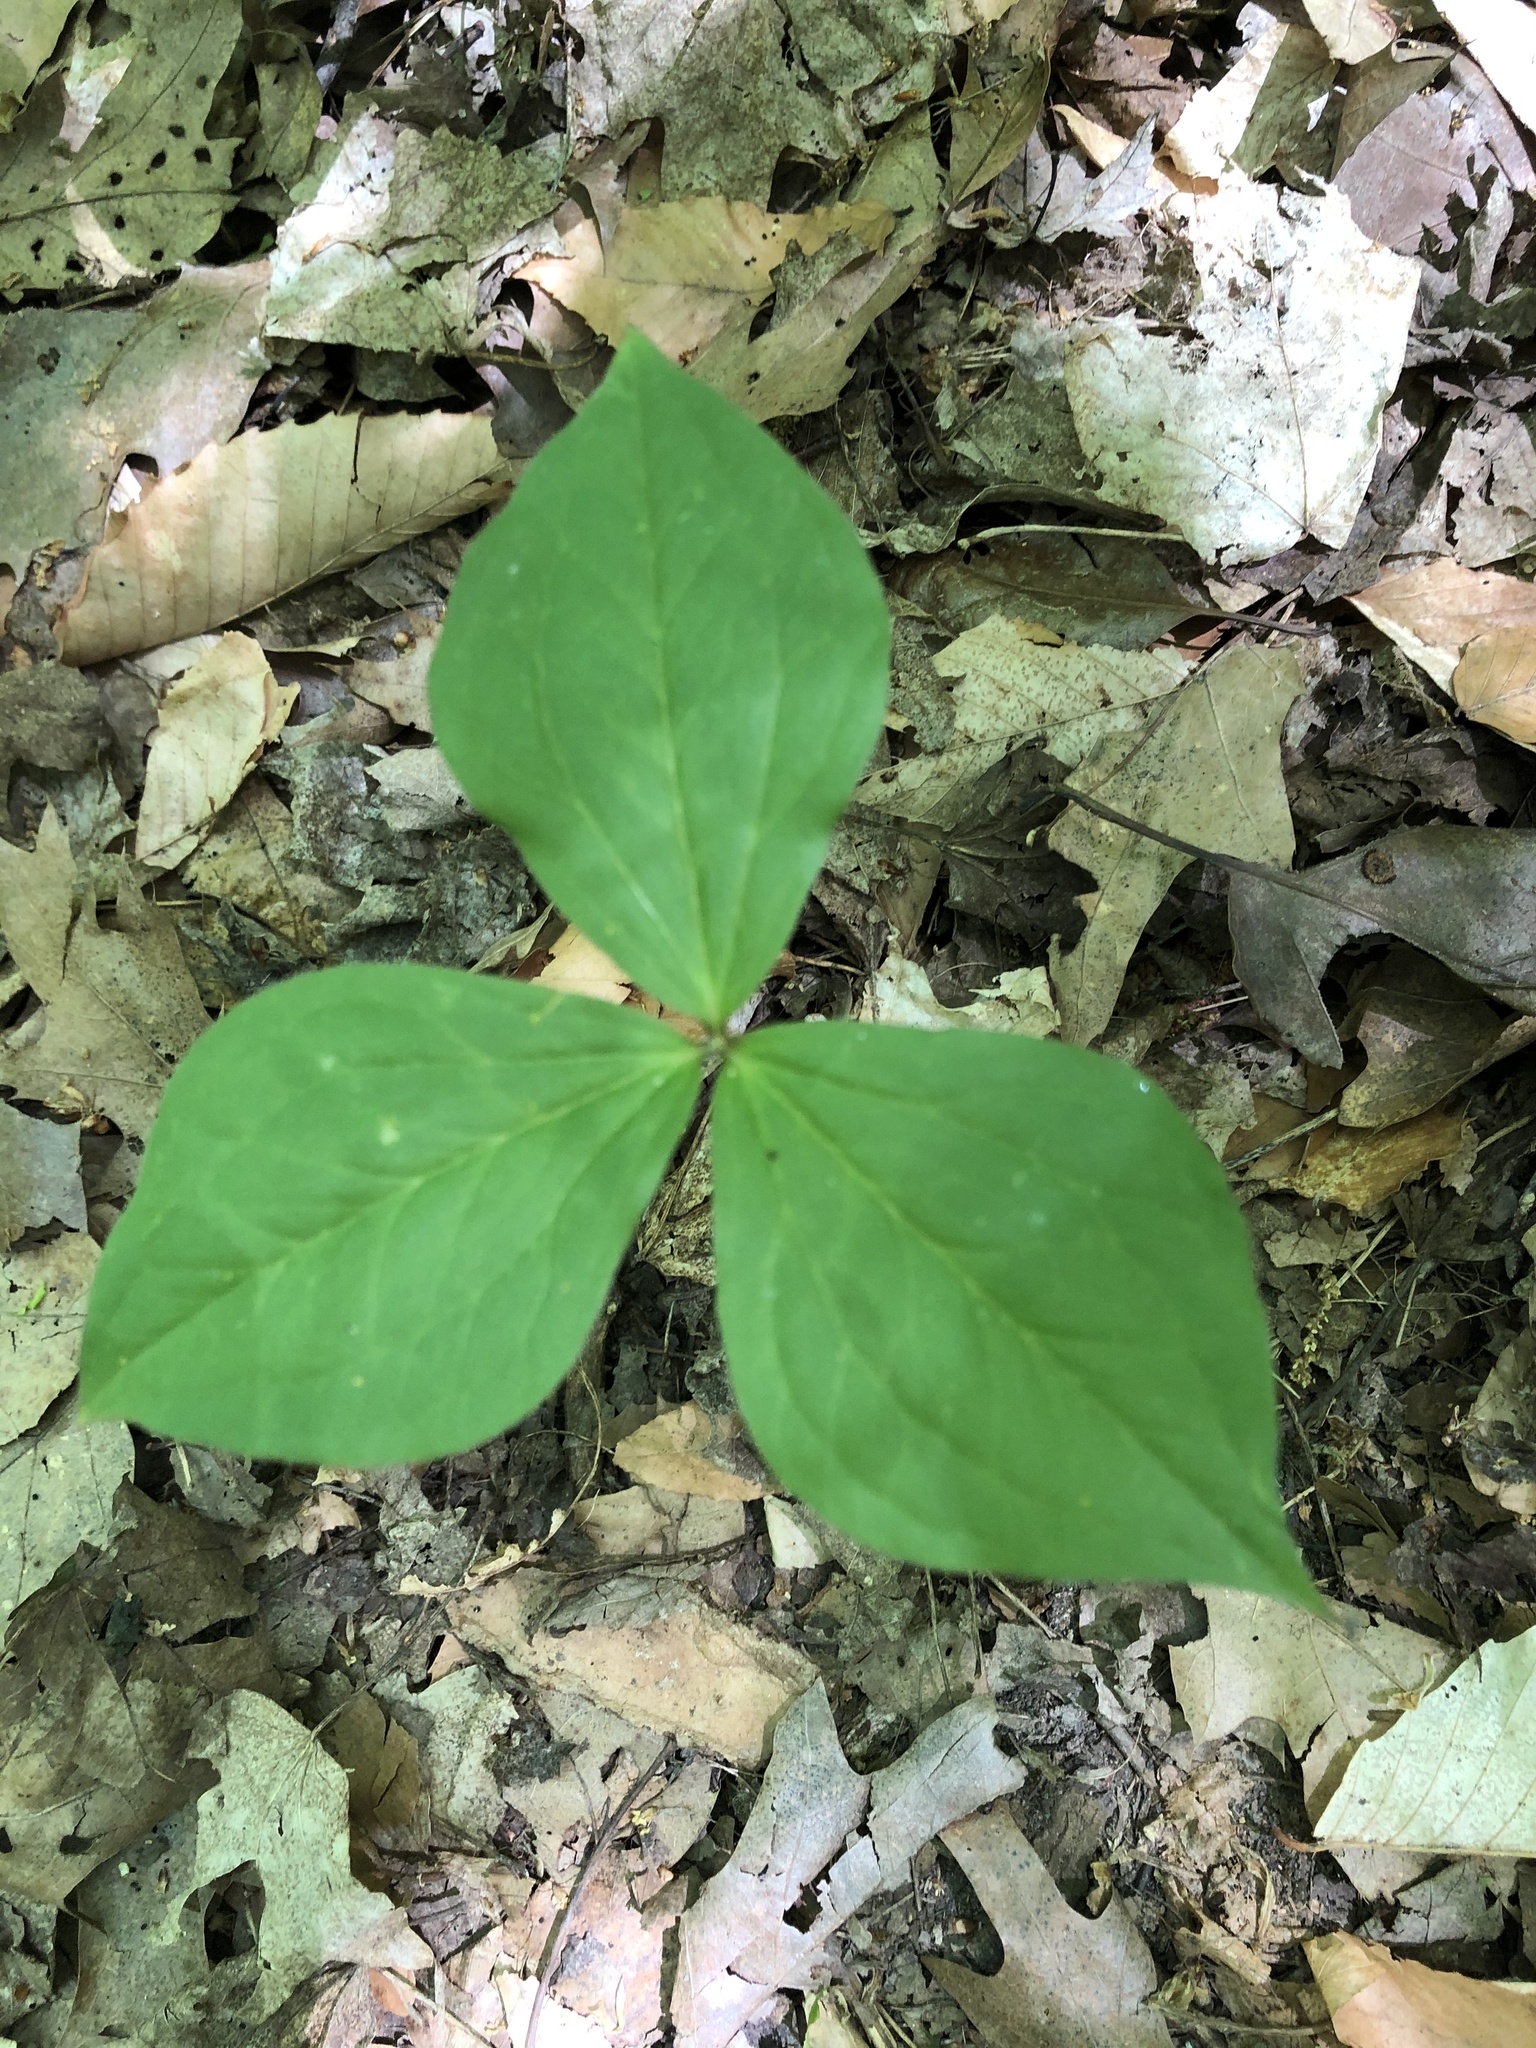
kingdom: Plantae
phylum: Tracheophyta
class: Liliopsida
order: Alismatales
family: Araceae
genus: Arisaema
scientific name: Arisaema triphyllum
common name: Jack-in-the-pulpit
